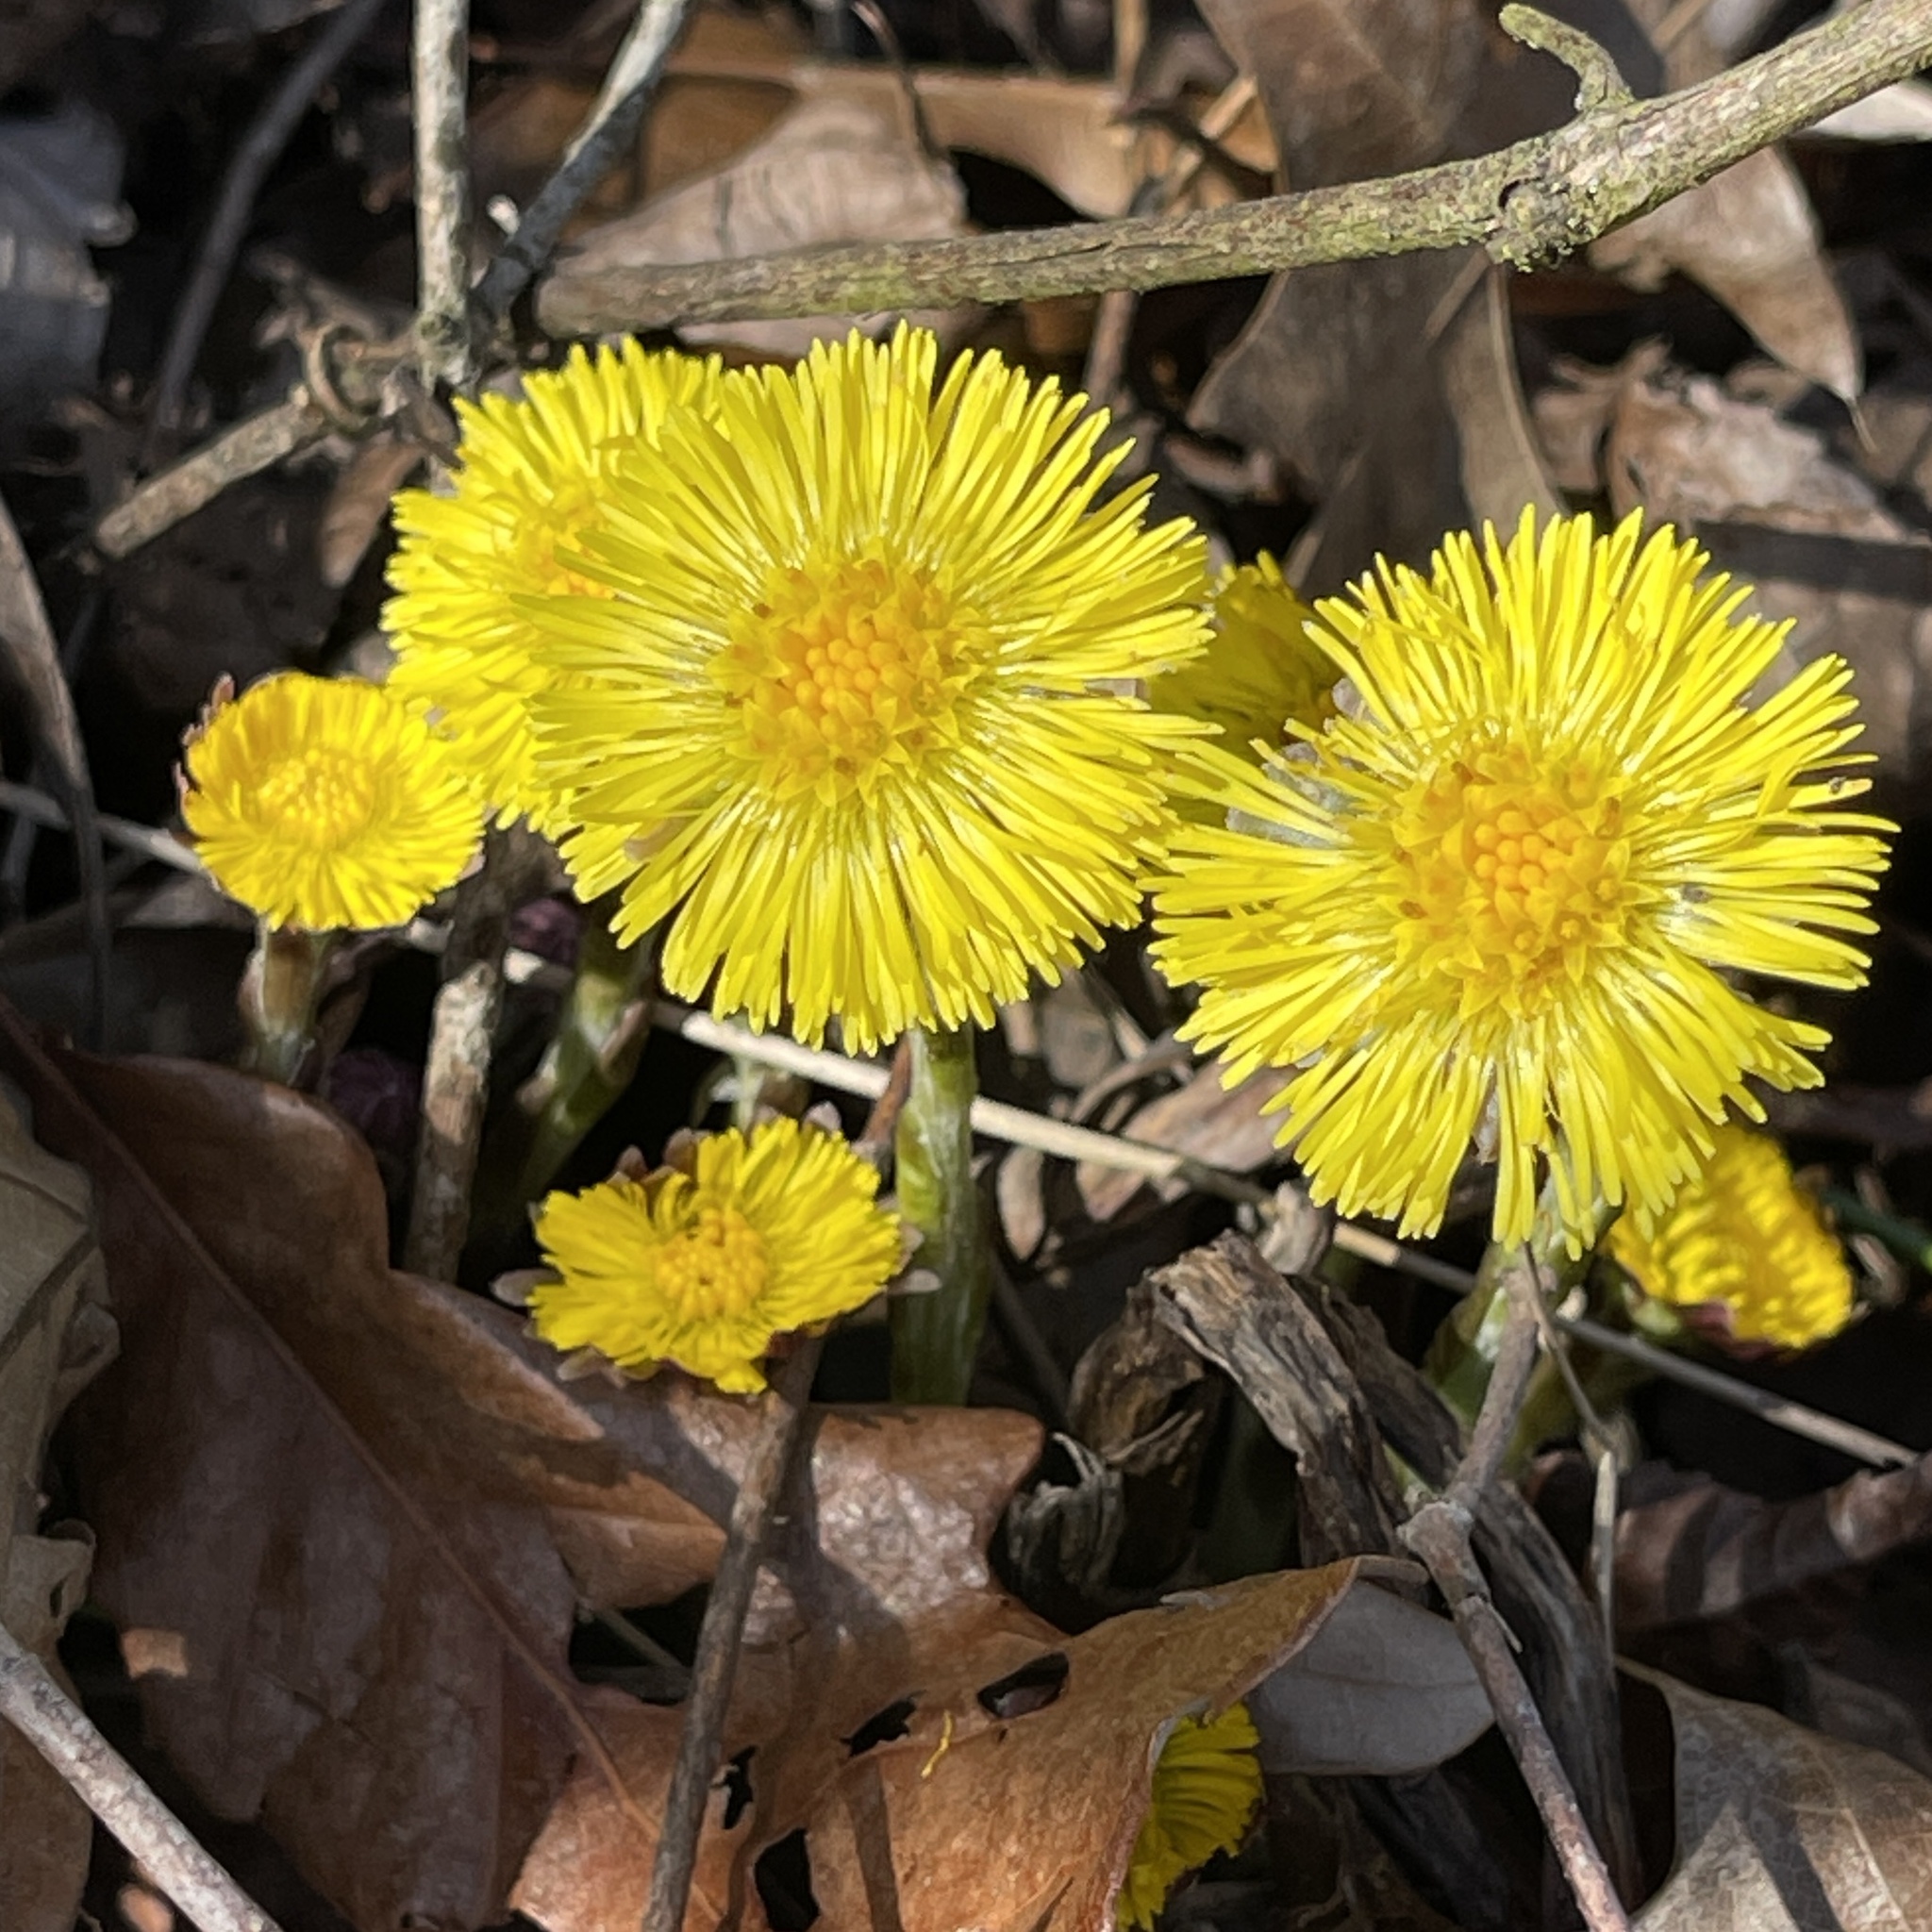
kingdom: Plantae
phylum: Tracheophyta
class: Magnoliopsida
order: Asterales
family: Asteraceae
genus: Tussilago
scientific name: Tussilago farfara
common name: Coltsfoot
